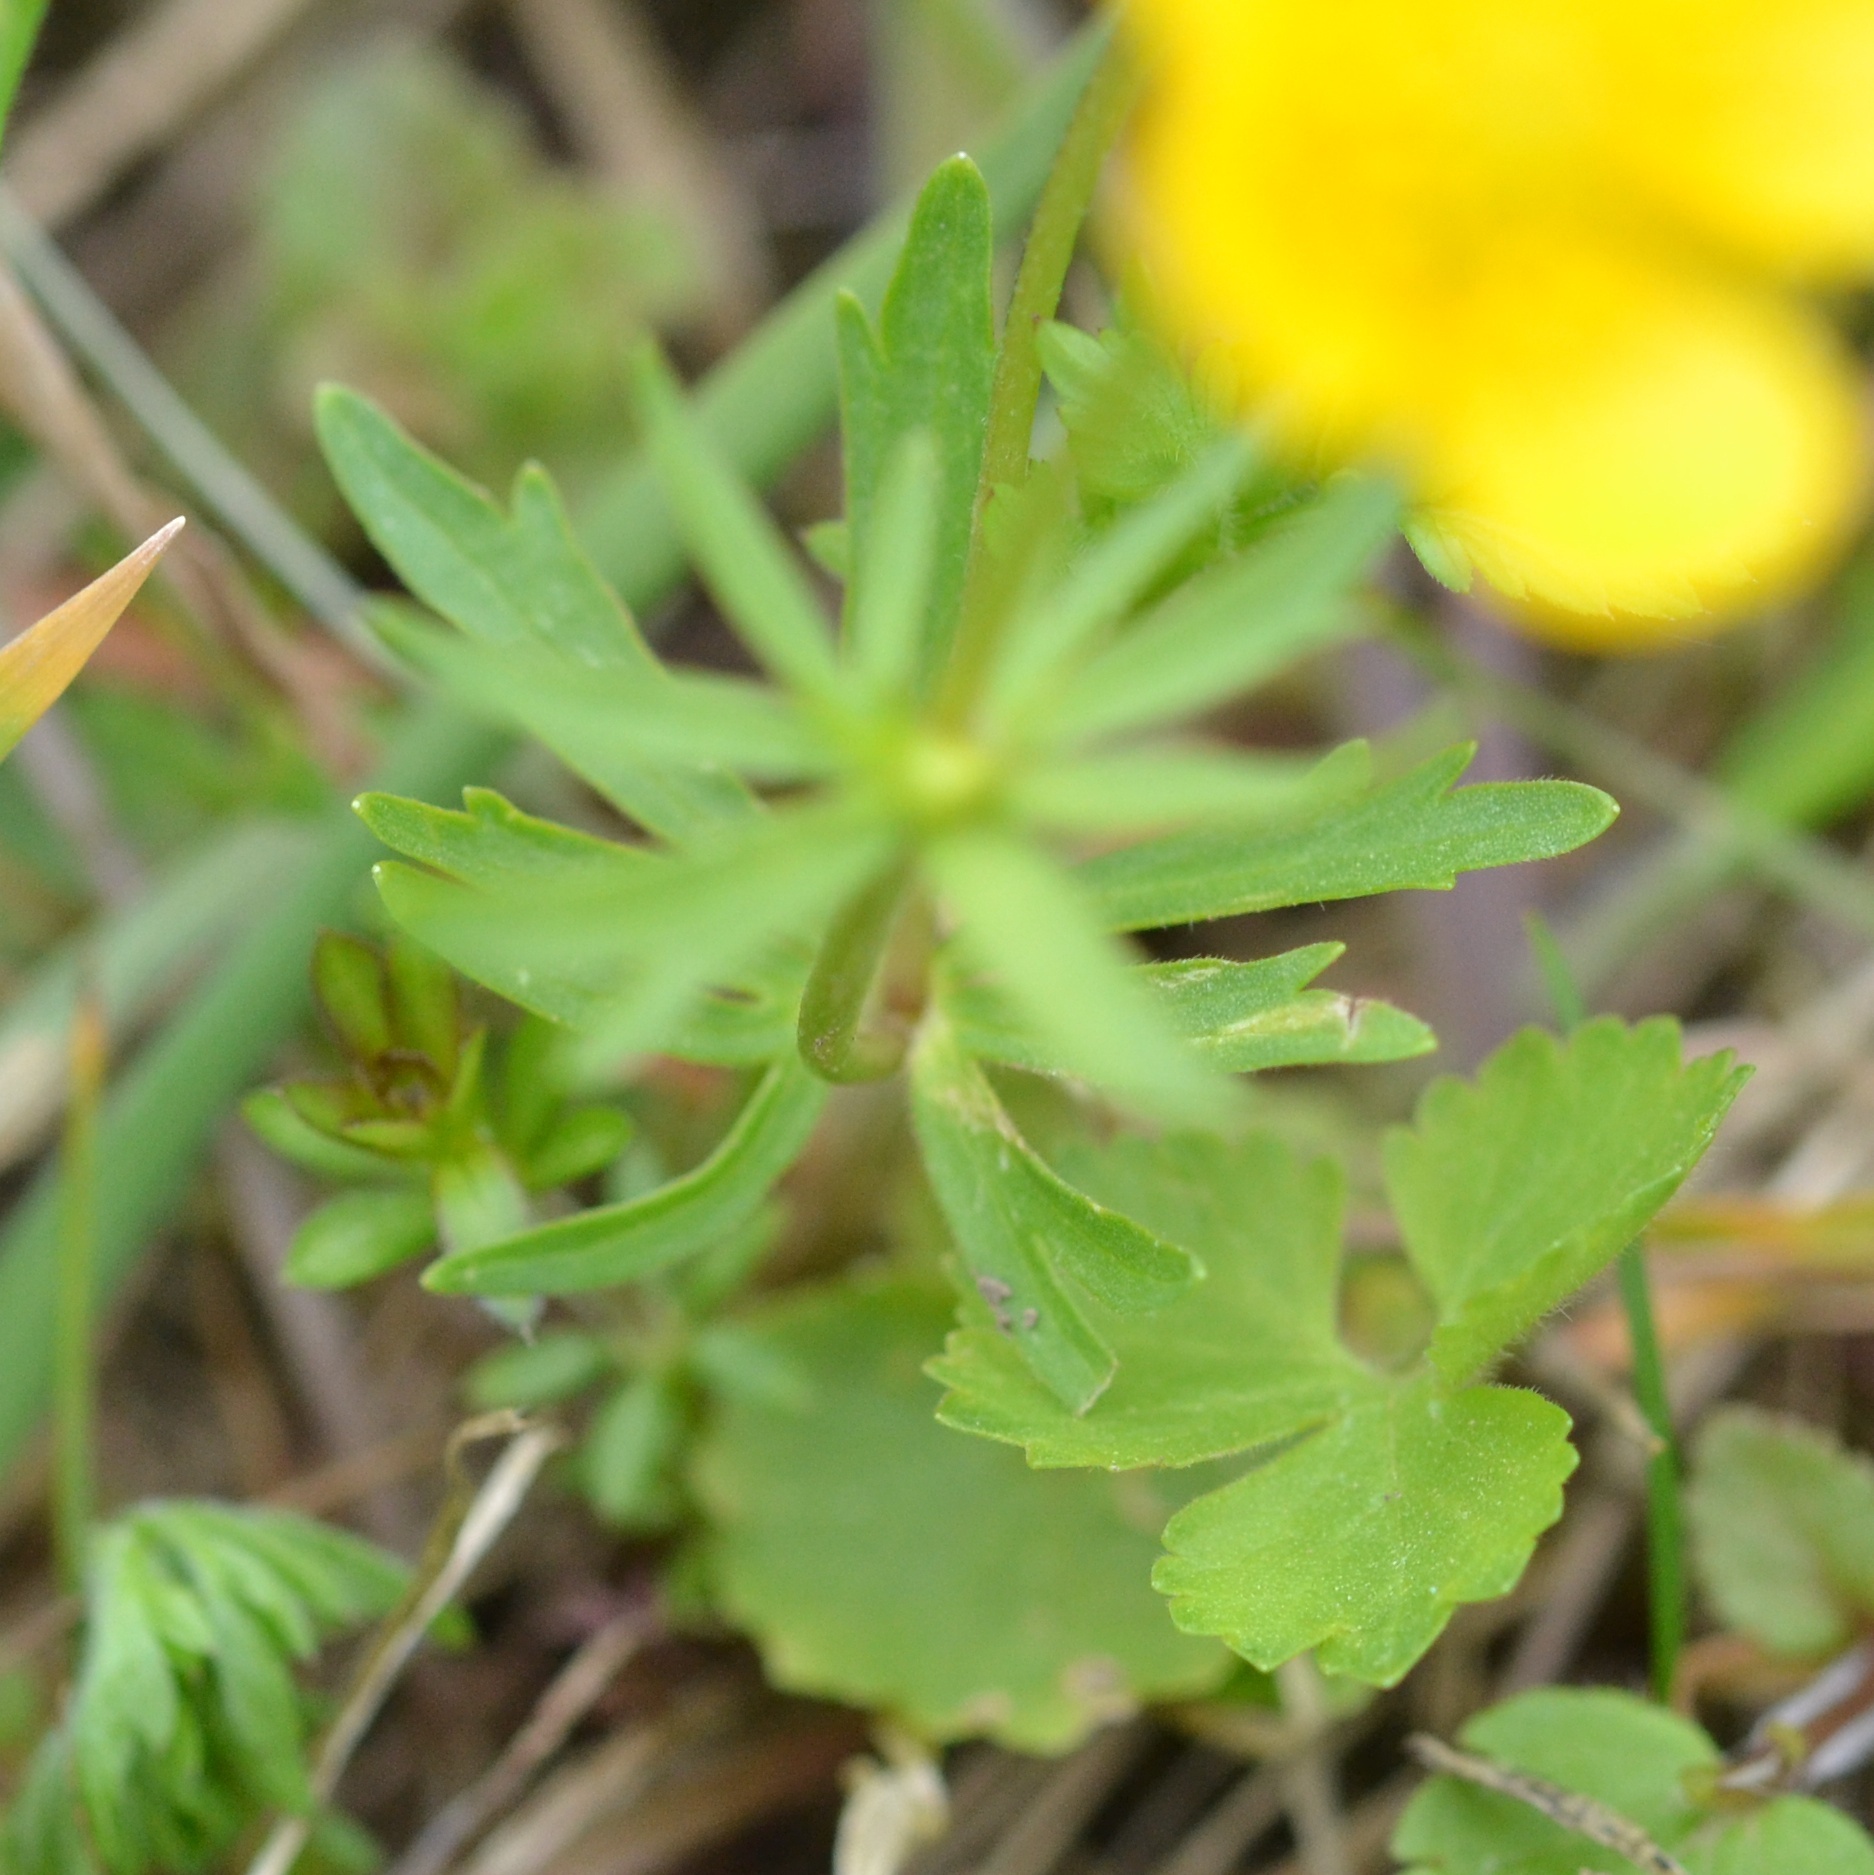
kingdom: Plantae
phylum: Tracheophyta
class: Magnoliopsida
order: Ranunculales
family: Ranunculaceae
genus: Ranunculus
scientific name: Ranunculus auricomus
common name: Goldilocks buttercup
